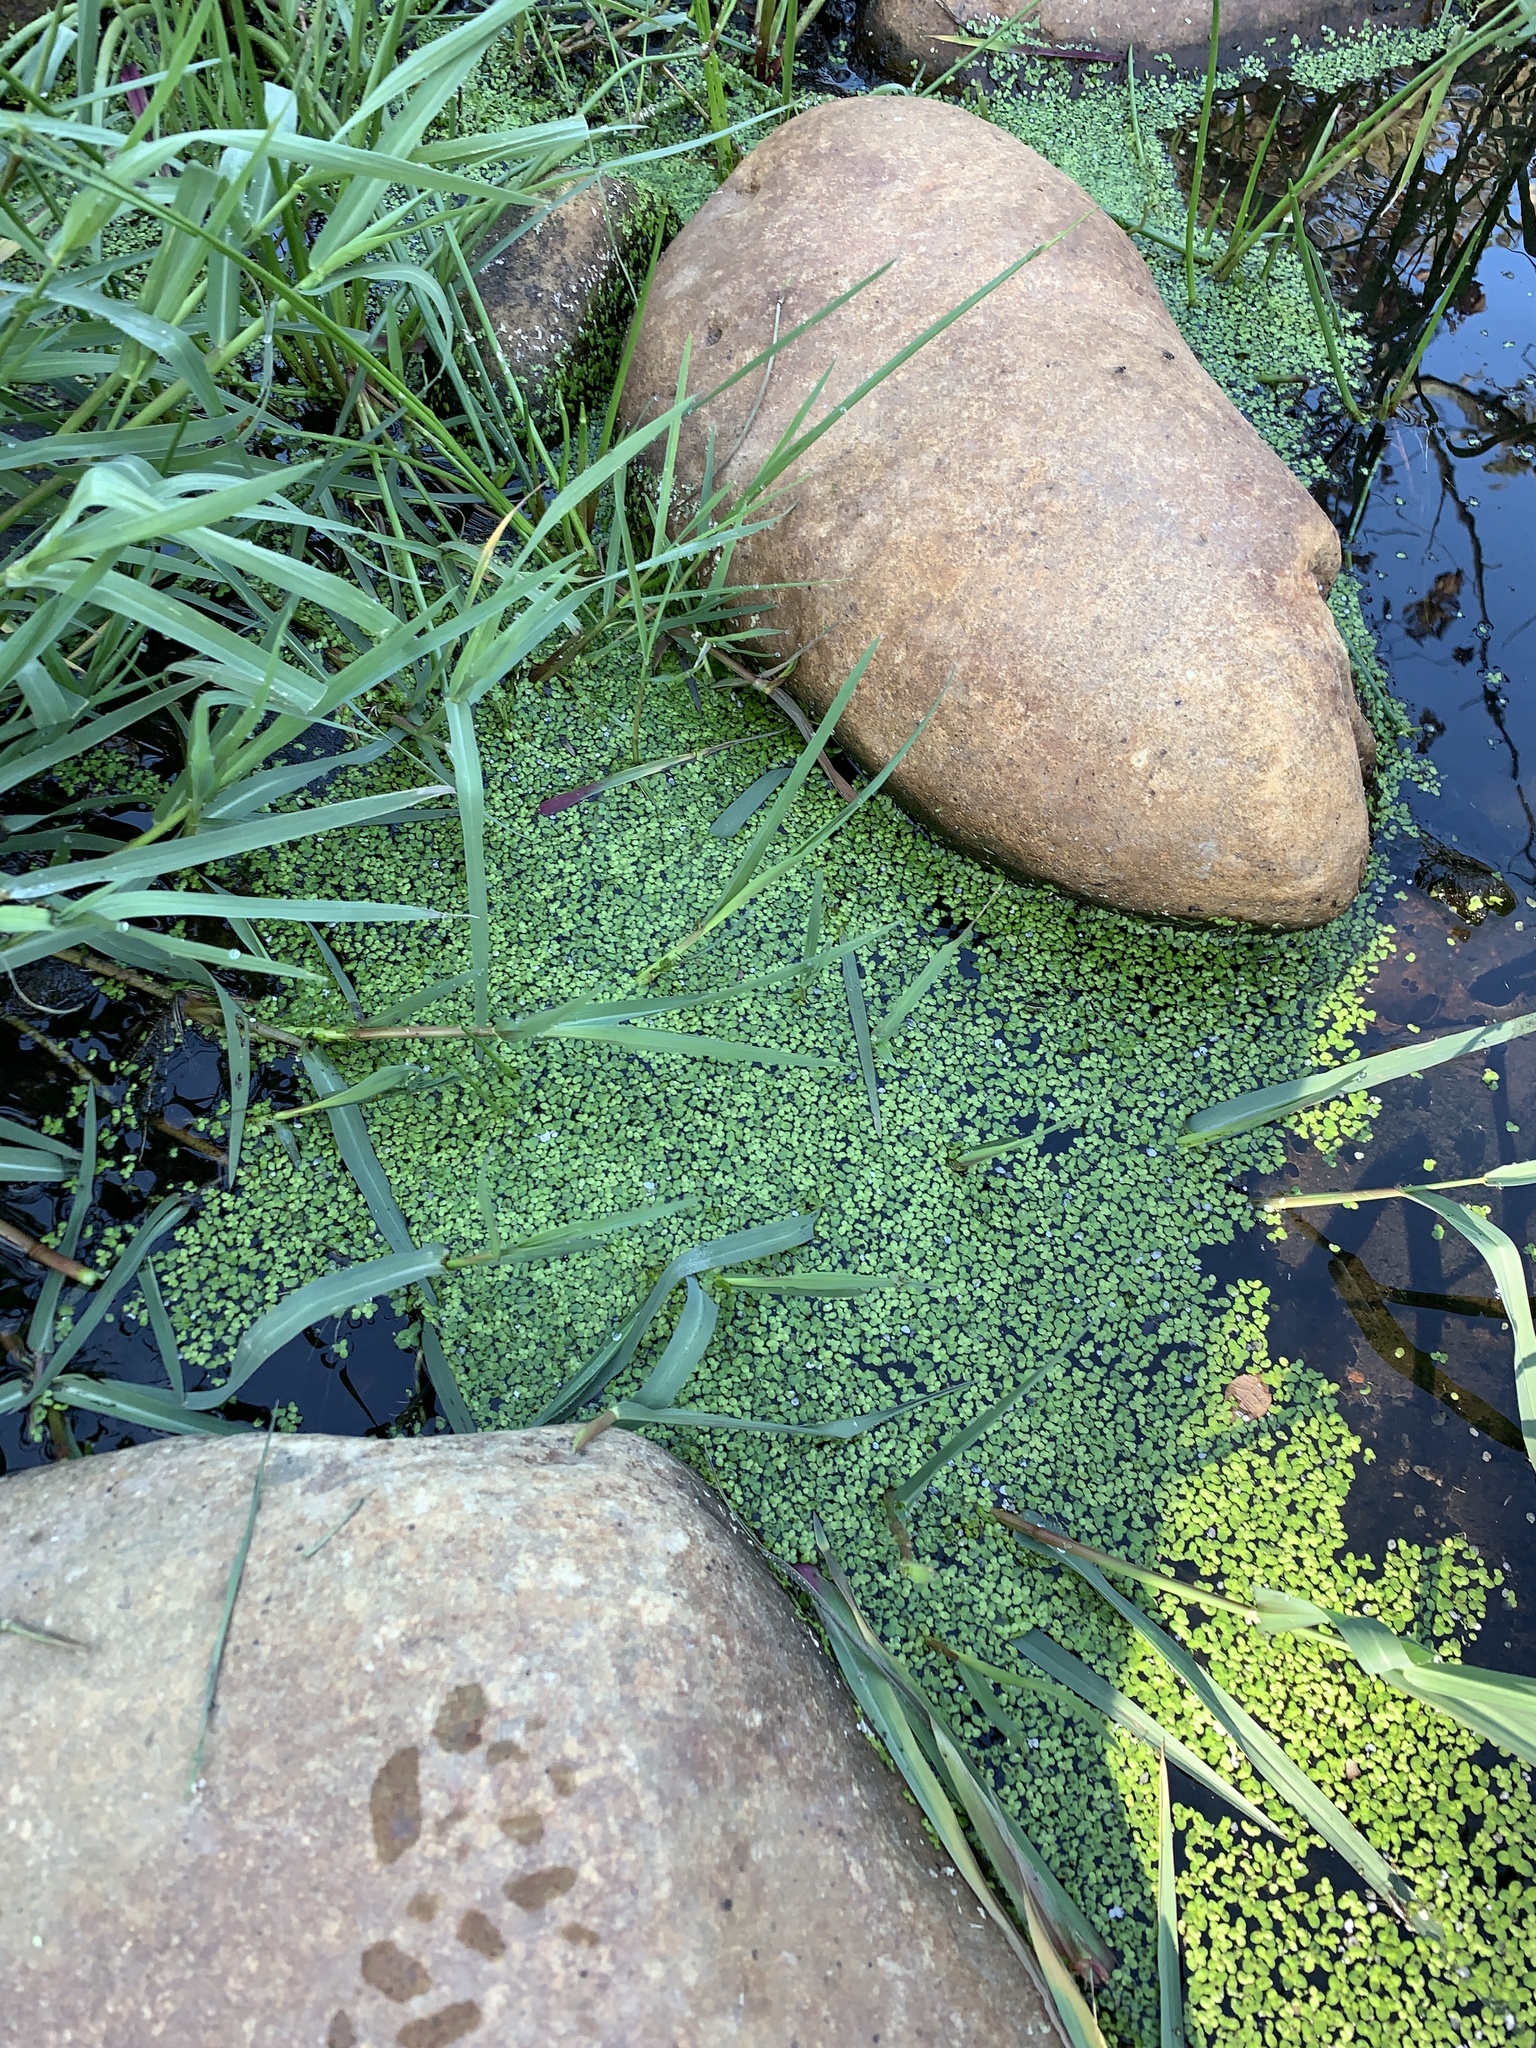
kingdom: Plantae
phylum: Tracheophyta
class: Liliopsida
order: Alismatales
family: Araceae
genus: Lemna
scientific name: Lemna minor
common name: Common duckweed
